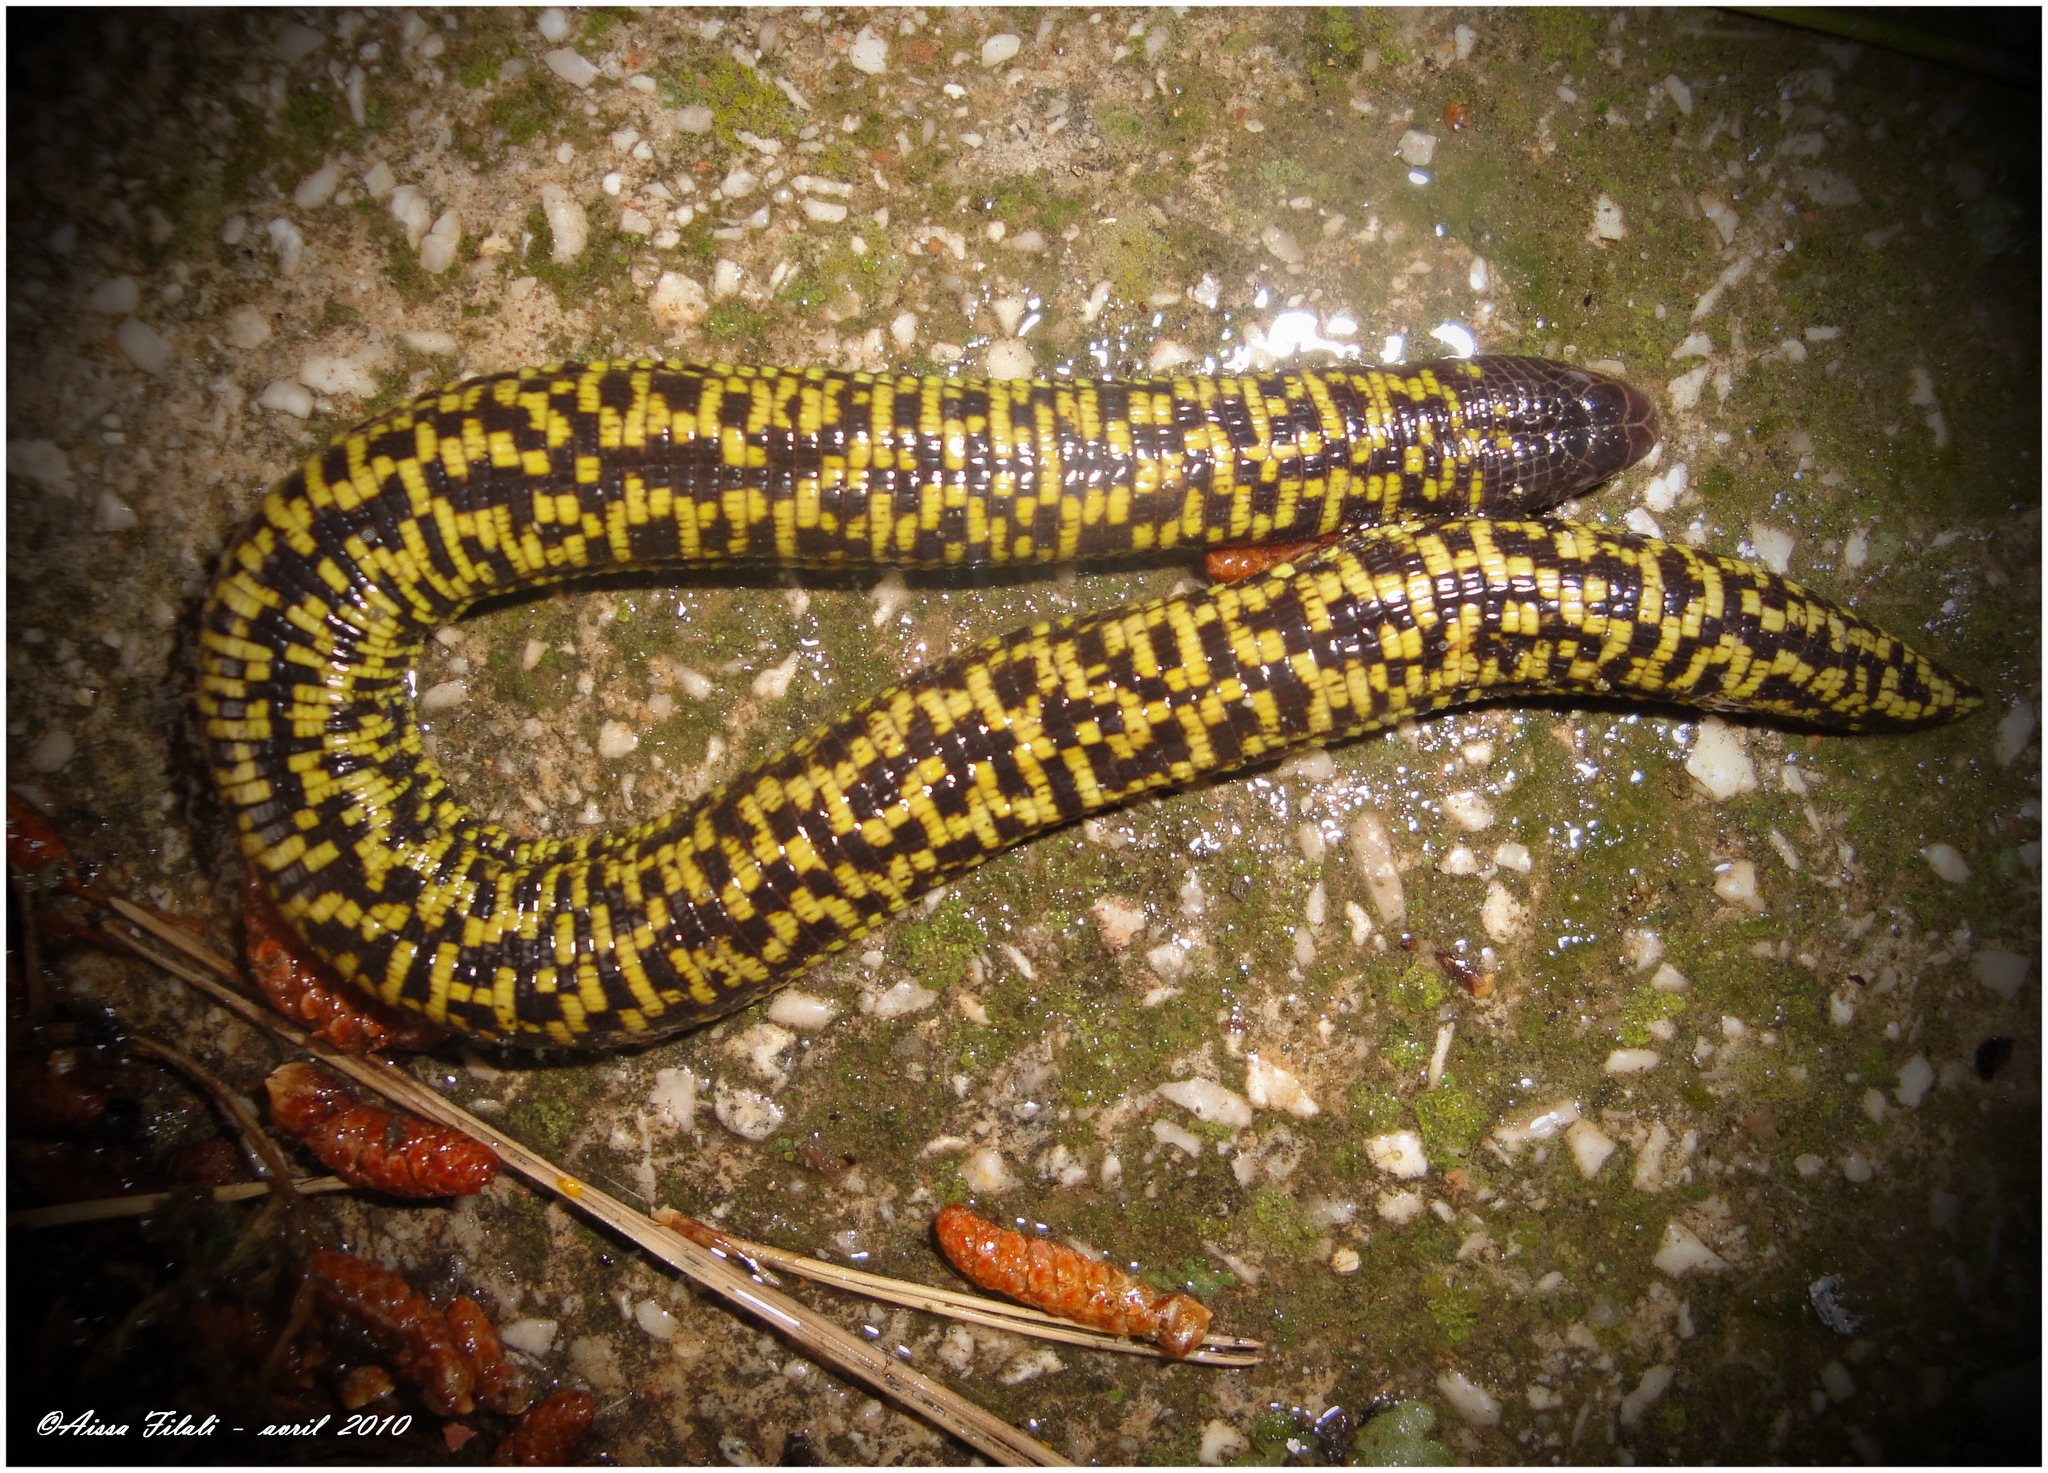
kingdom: Animalia
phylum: Chordata
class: Squamata
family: Trogonophidae
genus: Trogonophis
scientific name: Trogonophis wiegmanni
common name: Checkerboard worm lizard
